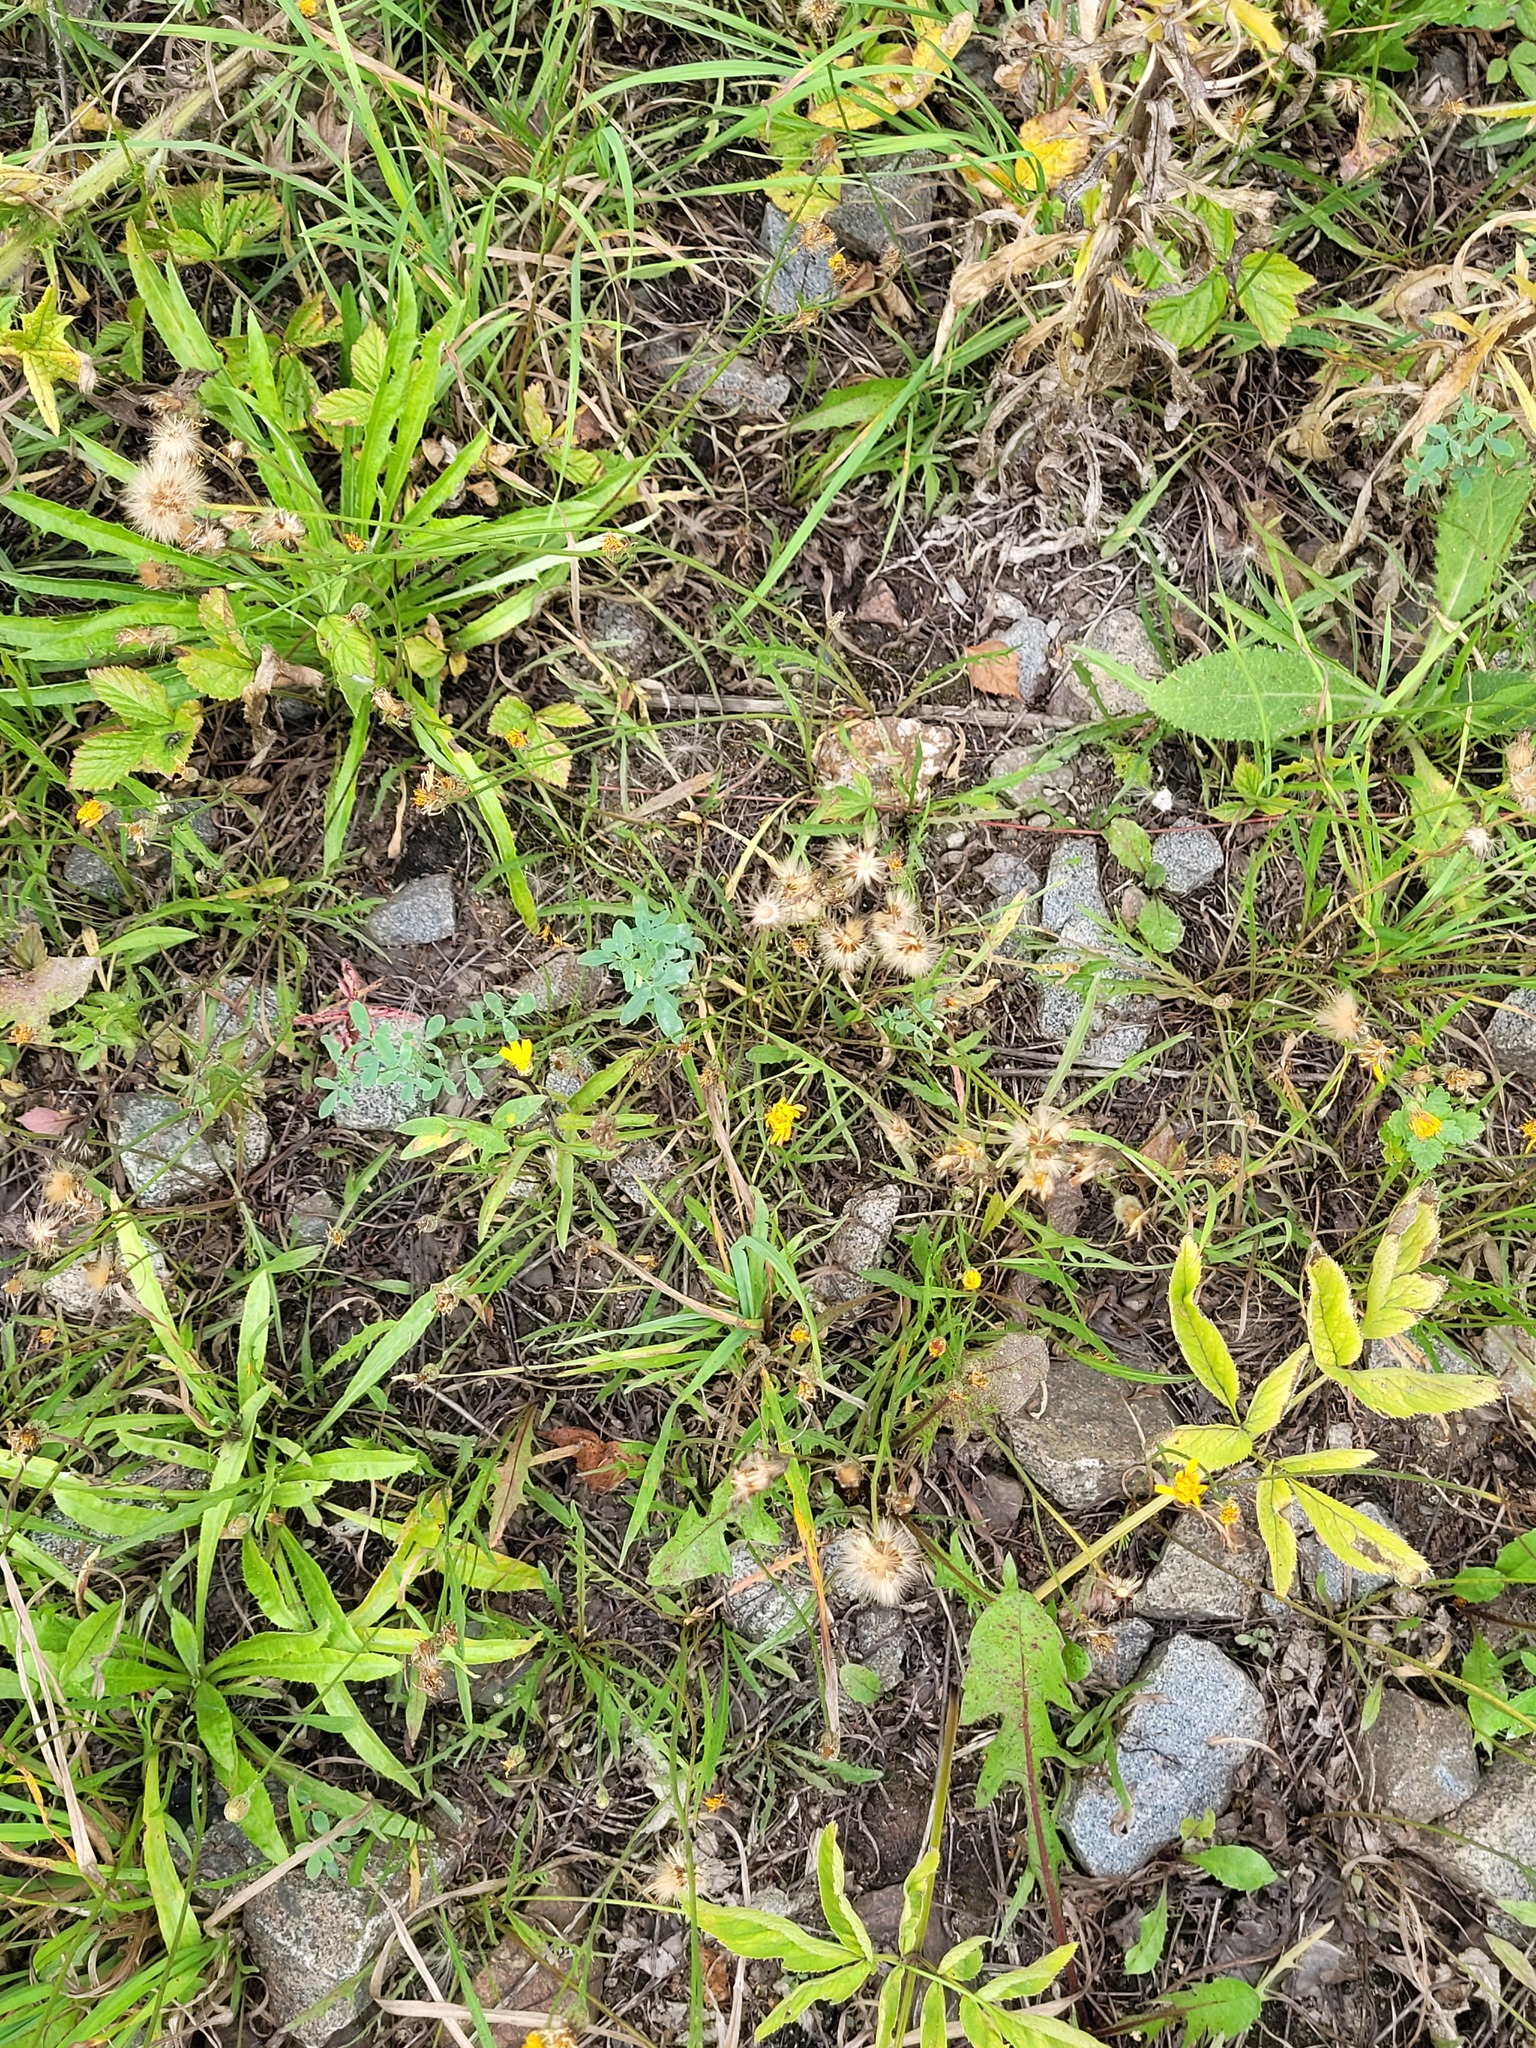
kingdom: Plantae
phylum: Tracheophyta
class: Magnoliopsida
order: Asterales
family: Asteraceae
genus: Scorzoneroides
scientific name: Scorzoneroides autumnalis
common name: Autumn hawkbit
